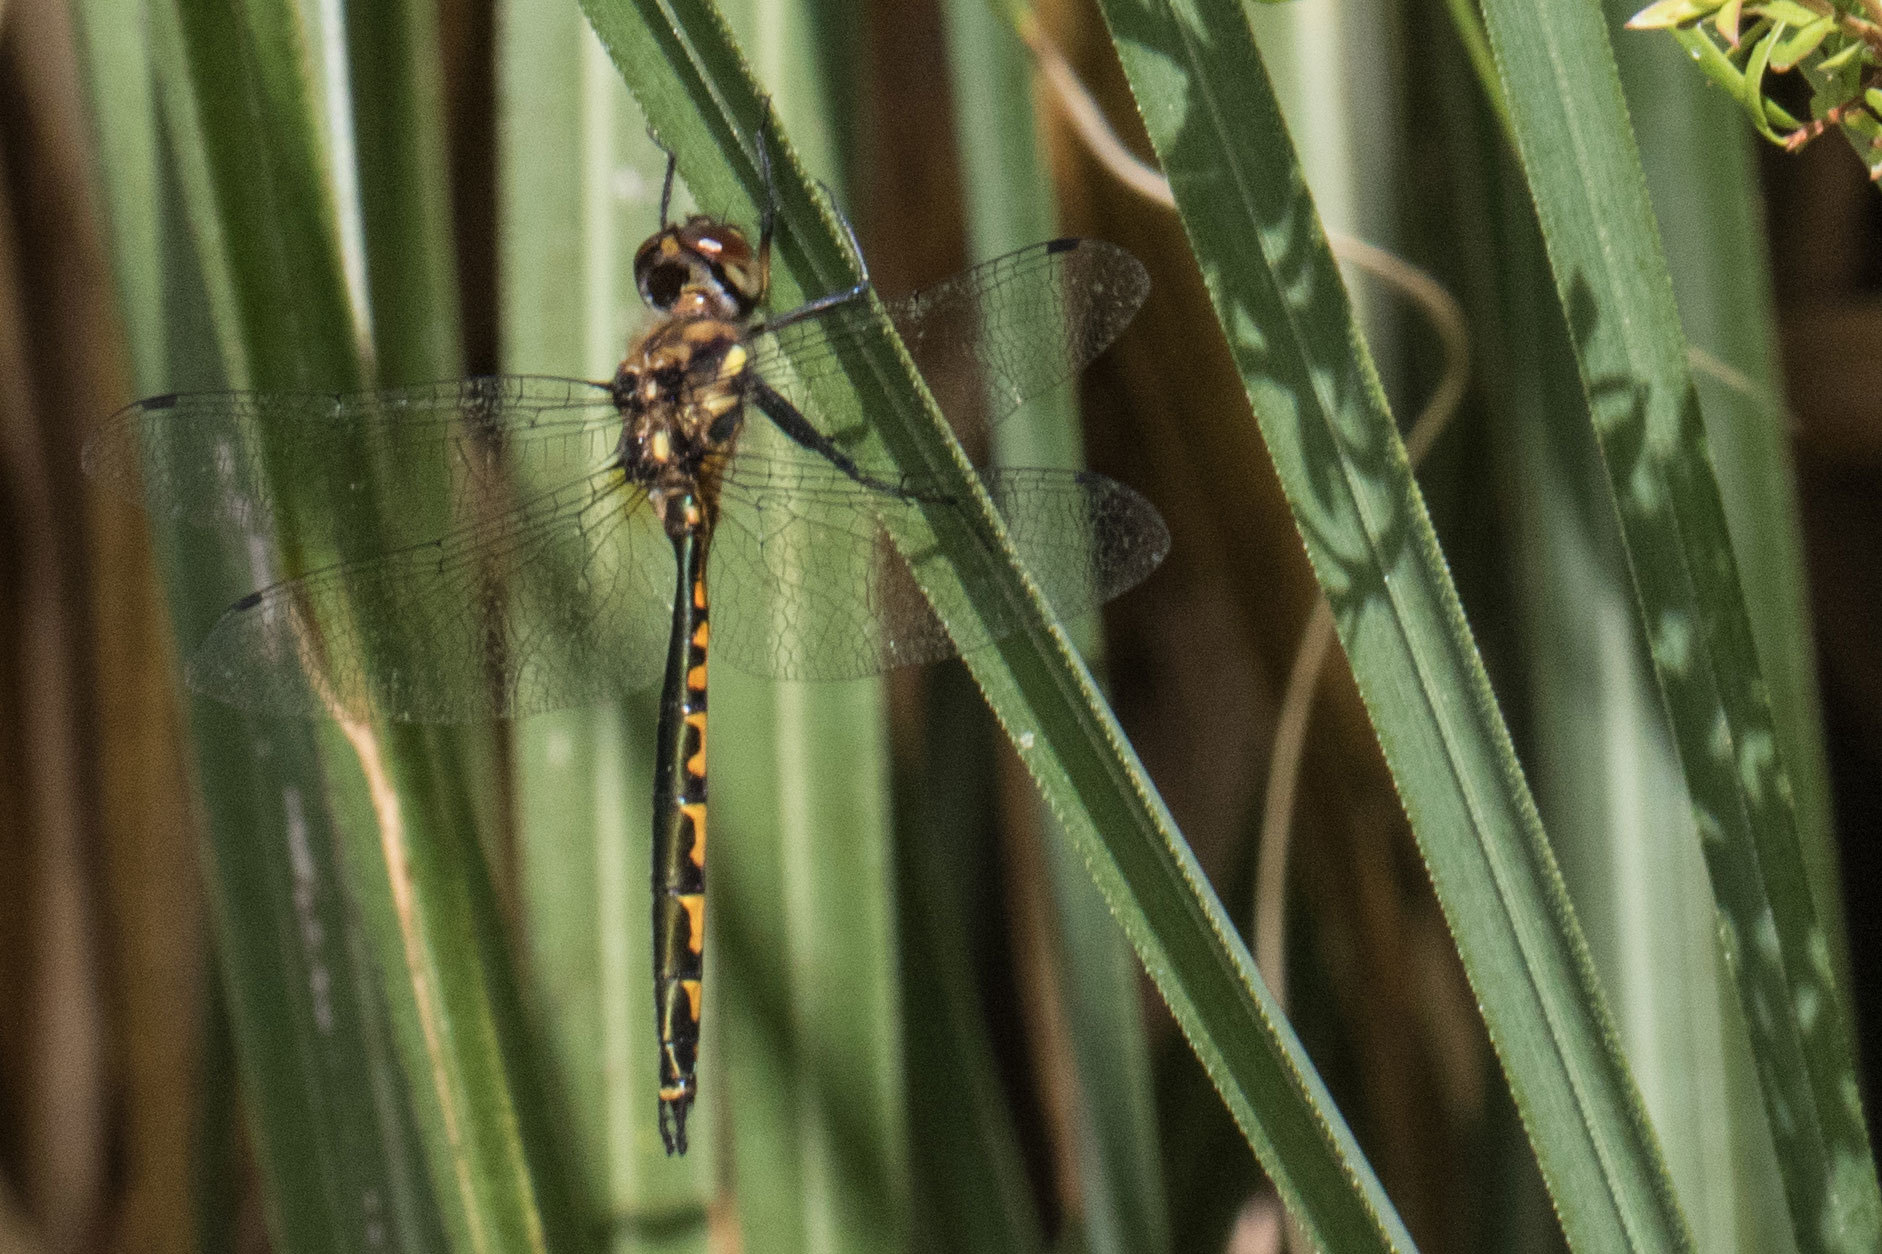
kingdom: Animalia
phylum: Arthropoda
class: Insecta
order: Odonata
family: Corduliidae
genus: Hemicordulia
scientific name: Hemicordulia australiae
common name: Sentry dragonfly
